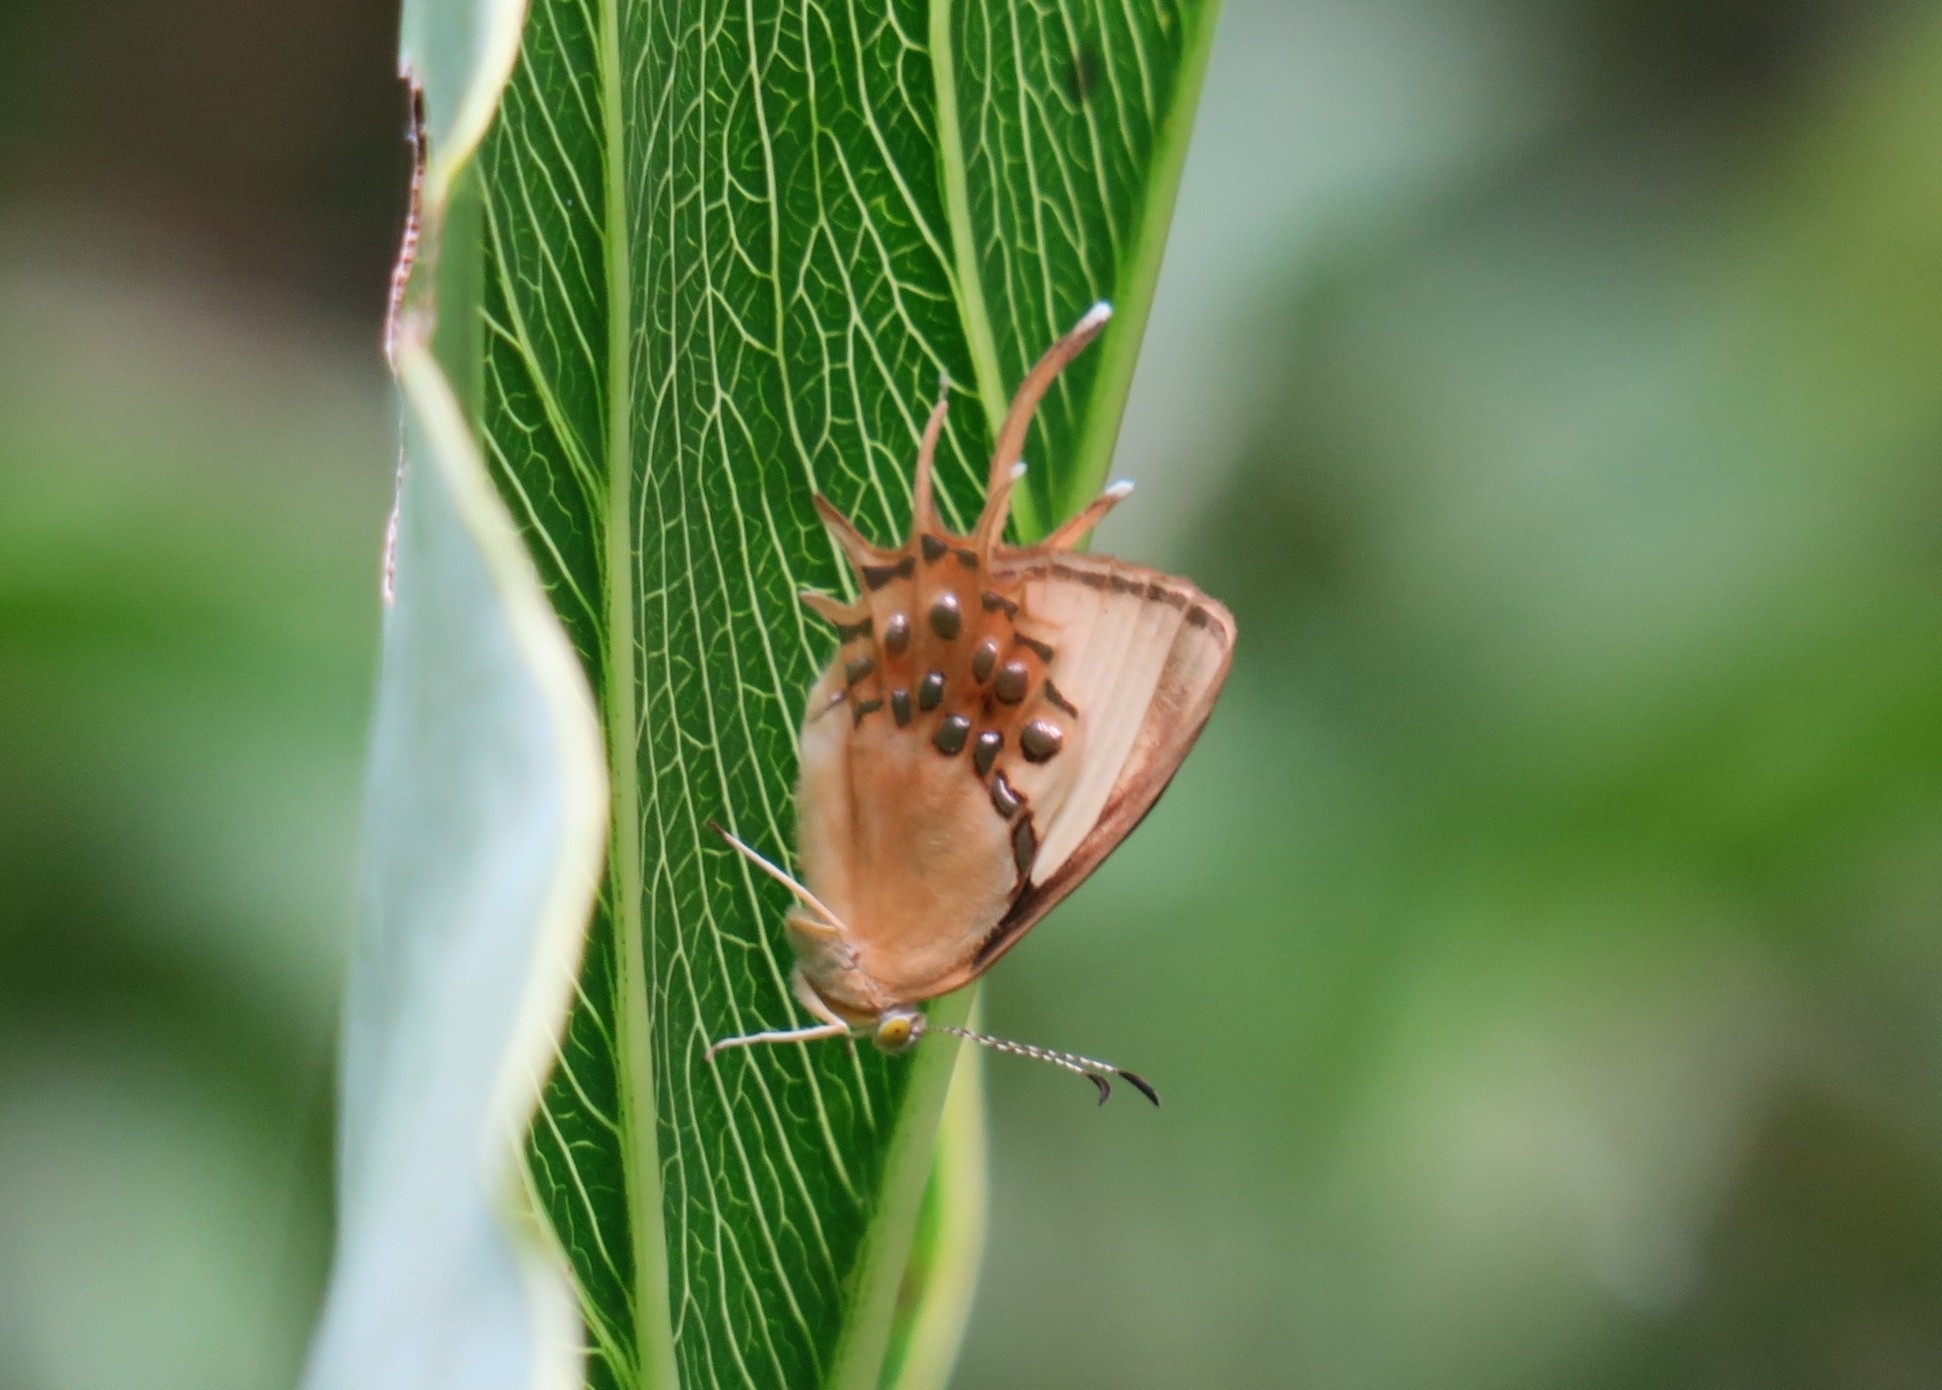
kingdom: Animalia
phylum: Arthropoda
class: Insecta
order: Lepidoptera
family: Riodinidae
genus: Helicopis
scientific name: Helicopis cupido
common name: Spangled cupid
